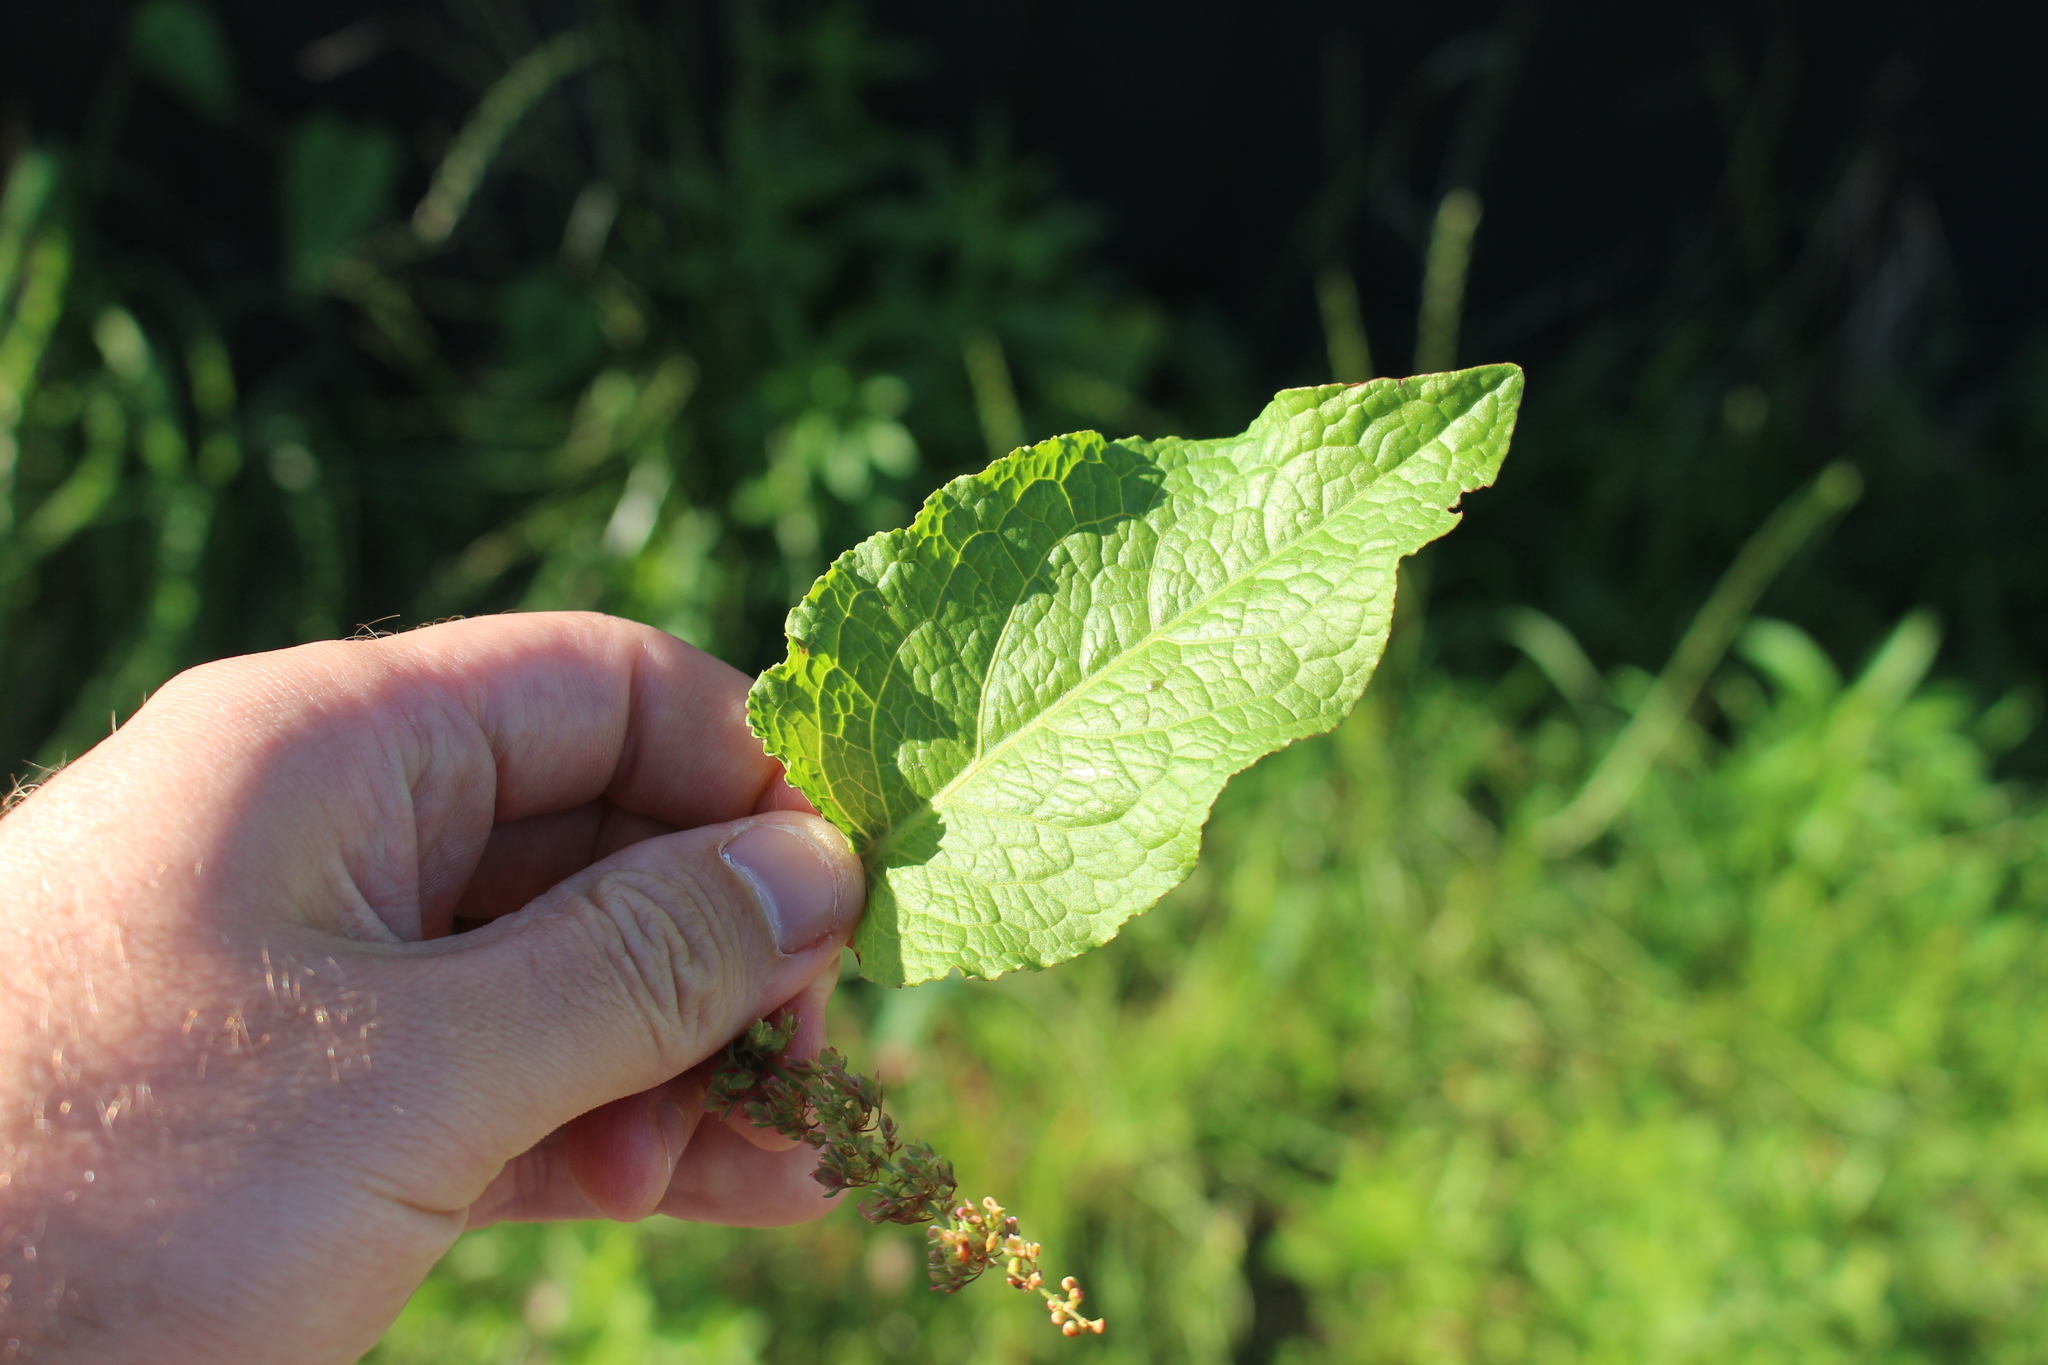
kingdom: Plantae
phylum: Tracheophyta
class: Magnoliopsida
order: Caryophyllales
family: Polygonaceae
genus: Rumex
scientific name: Rumex obtusifolius
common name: Bitter dock
